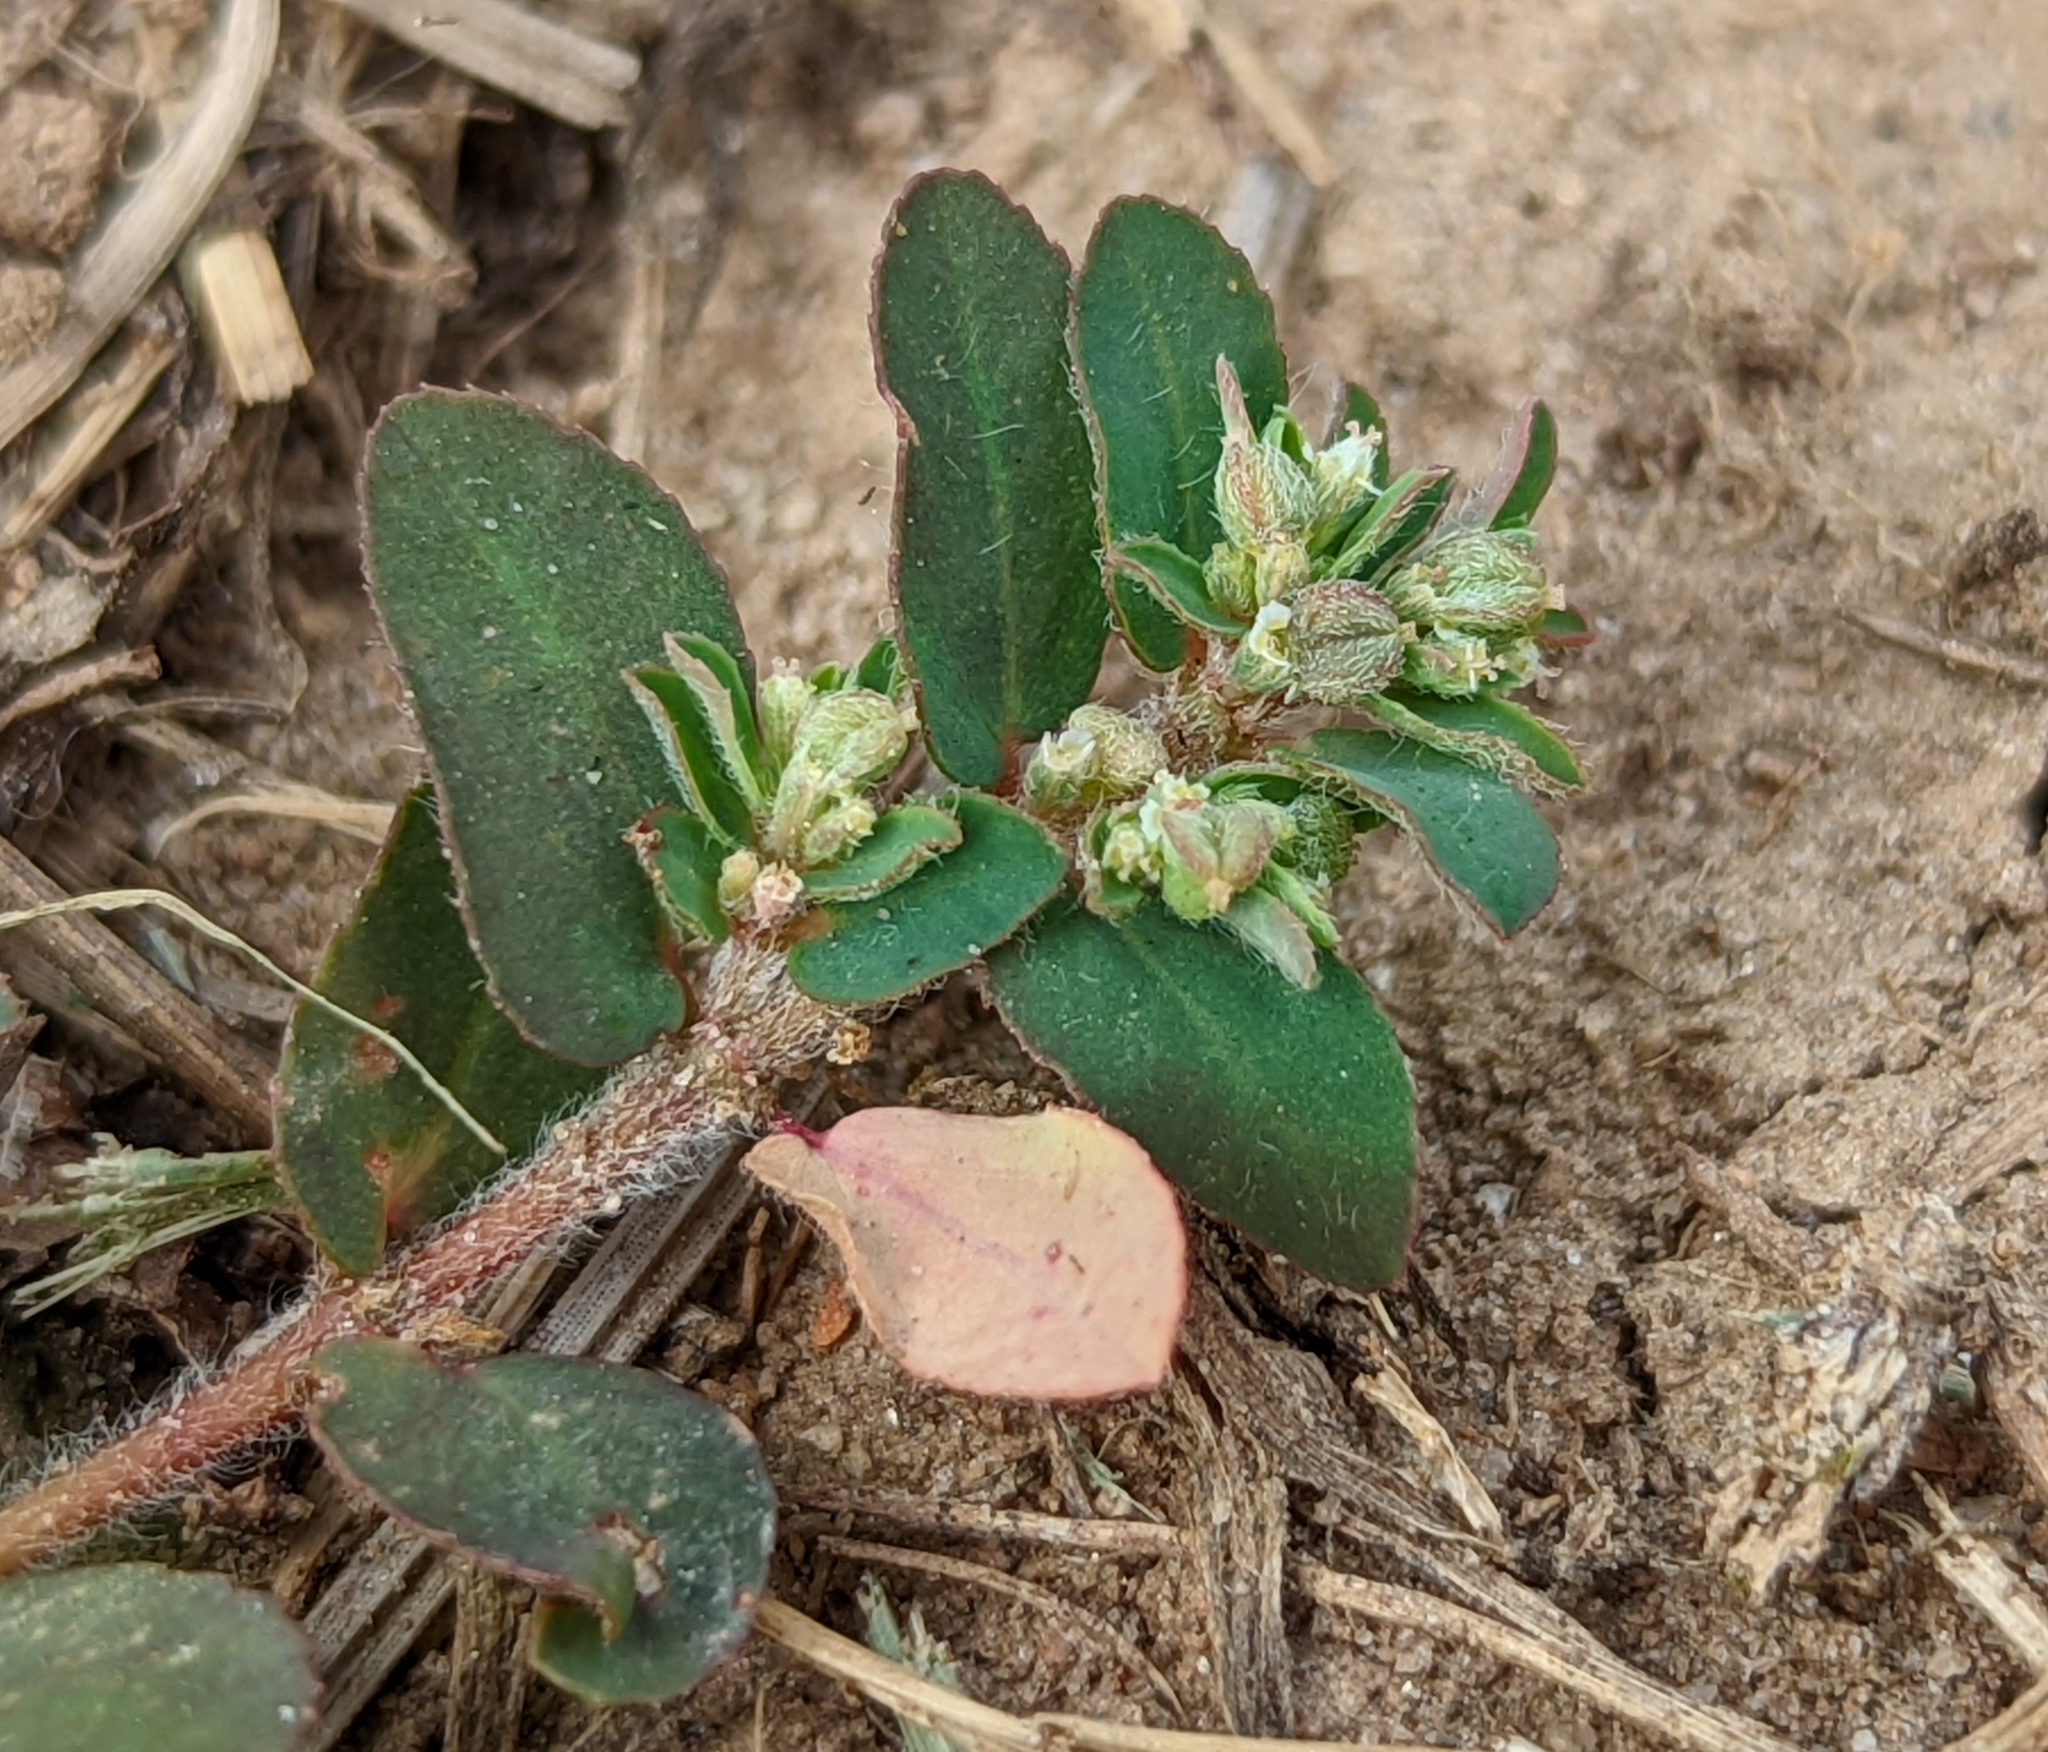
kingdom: Plantae
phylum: Tracheophyta
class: Magnoliopsida
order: Malpighiales
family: Euphorbiaceae
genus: Euphorbia
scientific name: Euphorbia maculata
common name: Spotted spurge
